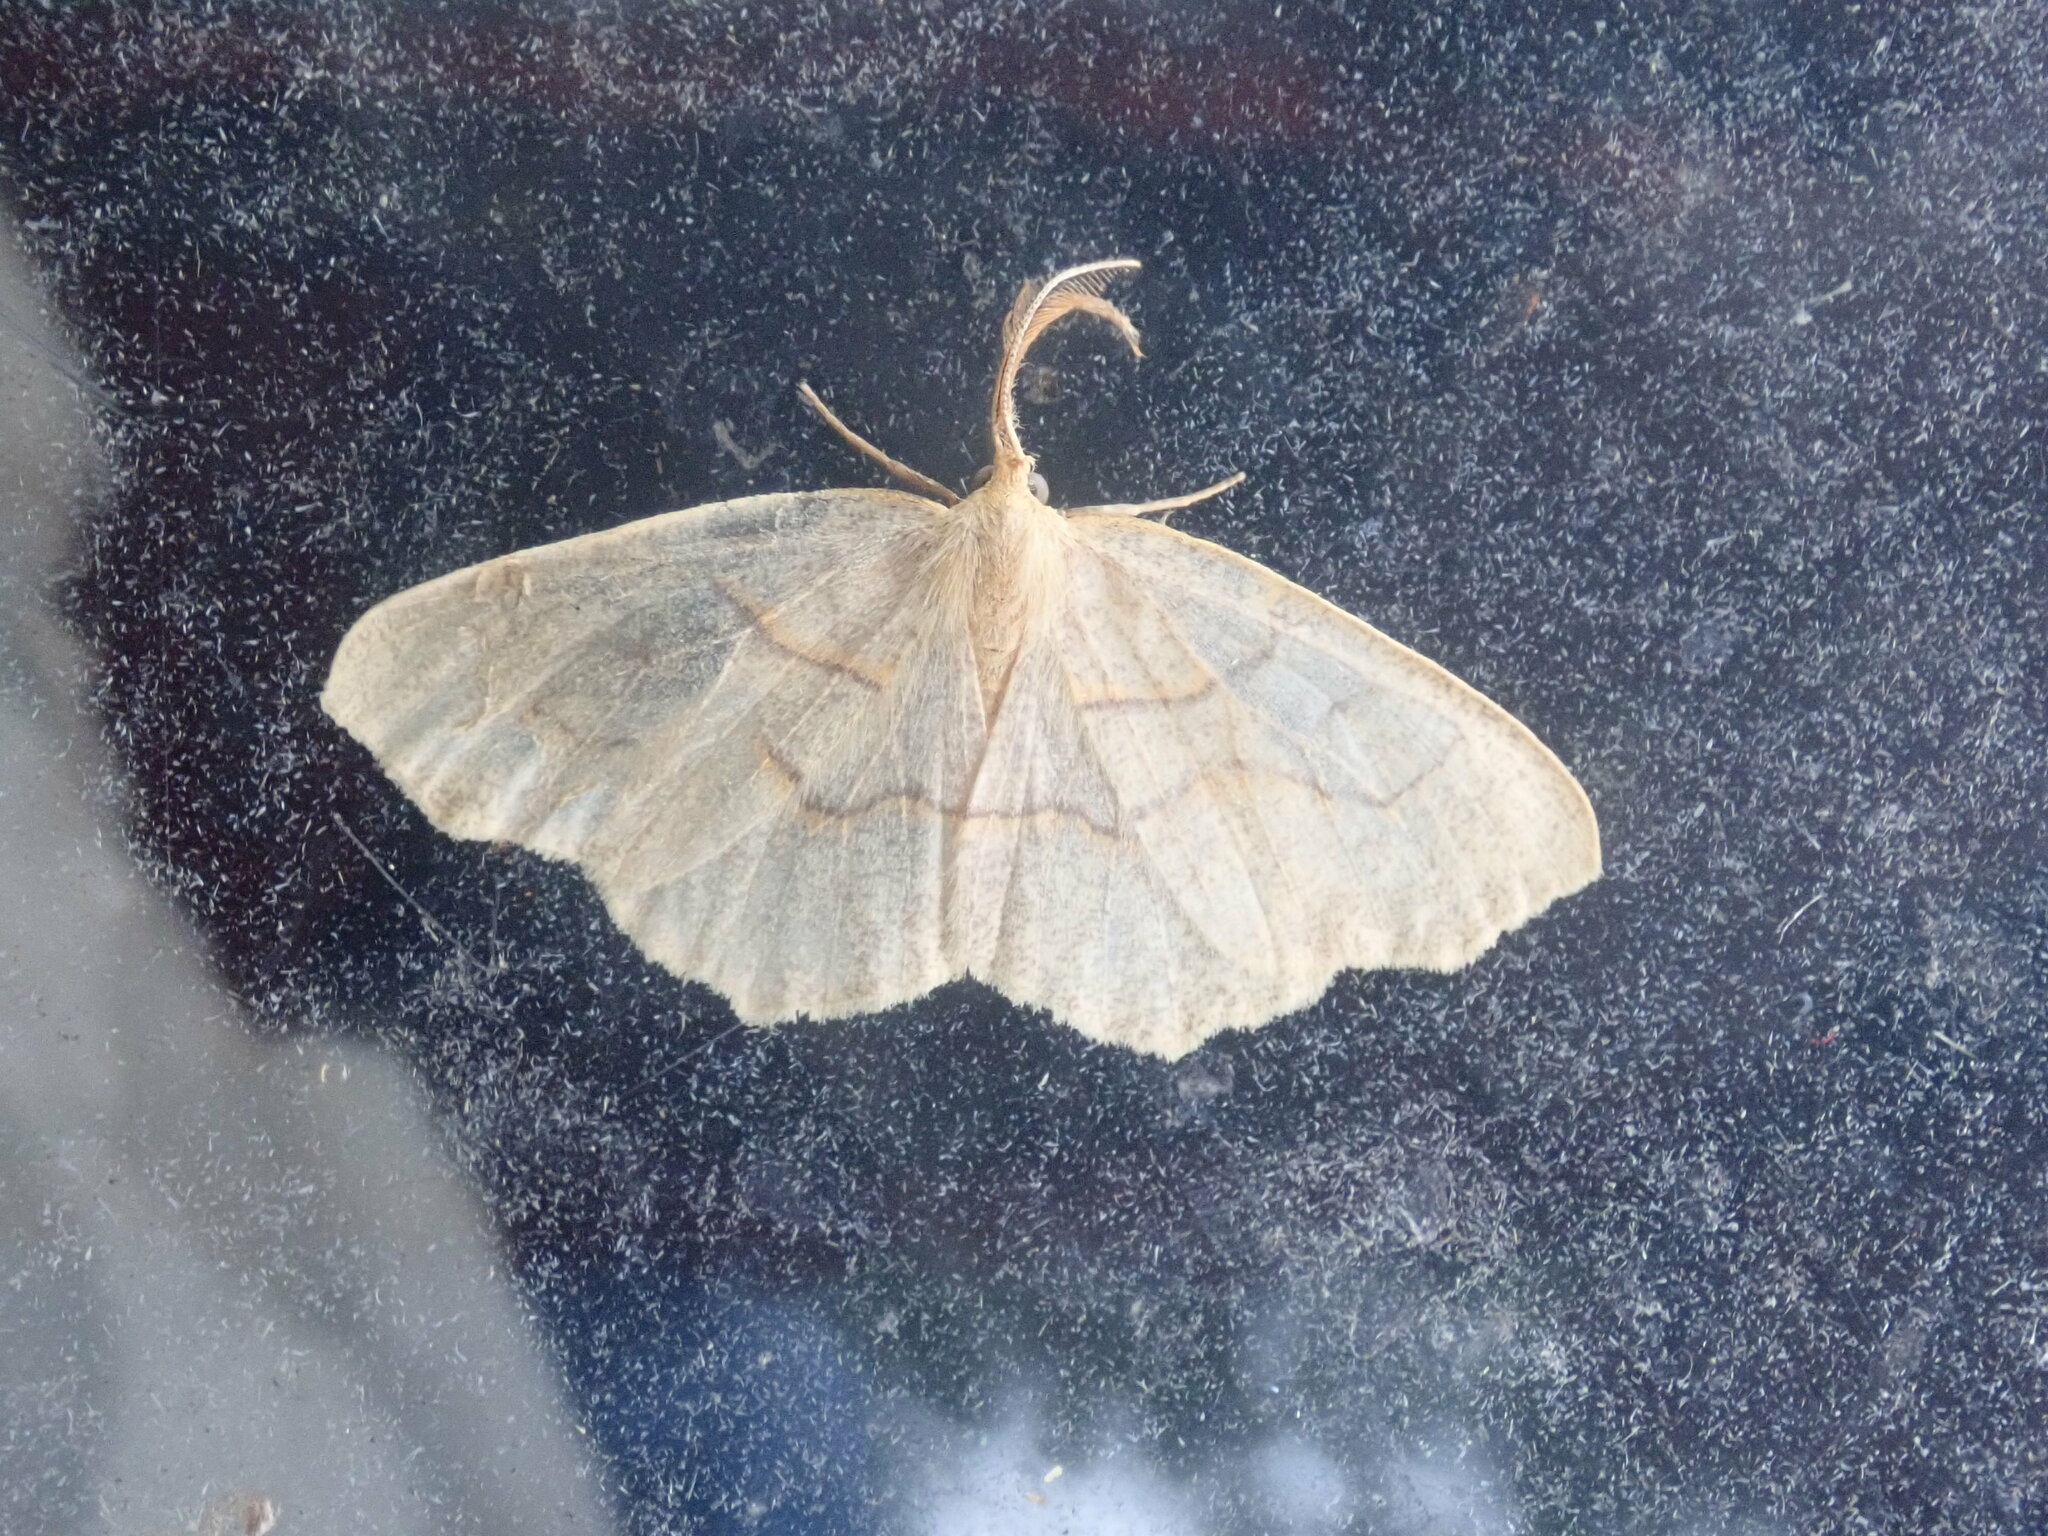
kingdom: Animalia
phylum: Arthropoda
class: Insecta
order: Lepidoptera
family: Geometridae
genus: Lambdina
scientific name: Lambdina fiscellaria
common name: Hemlock looper
